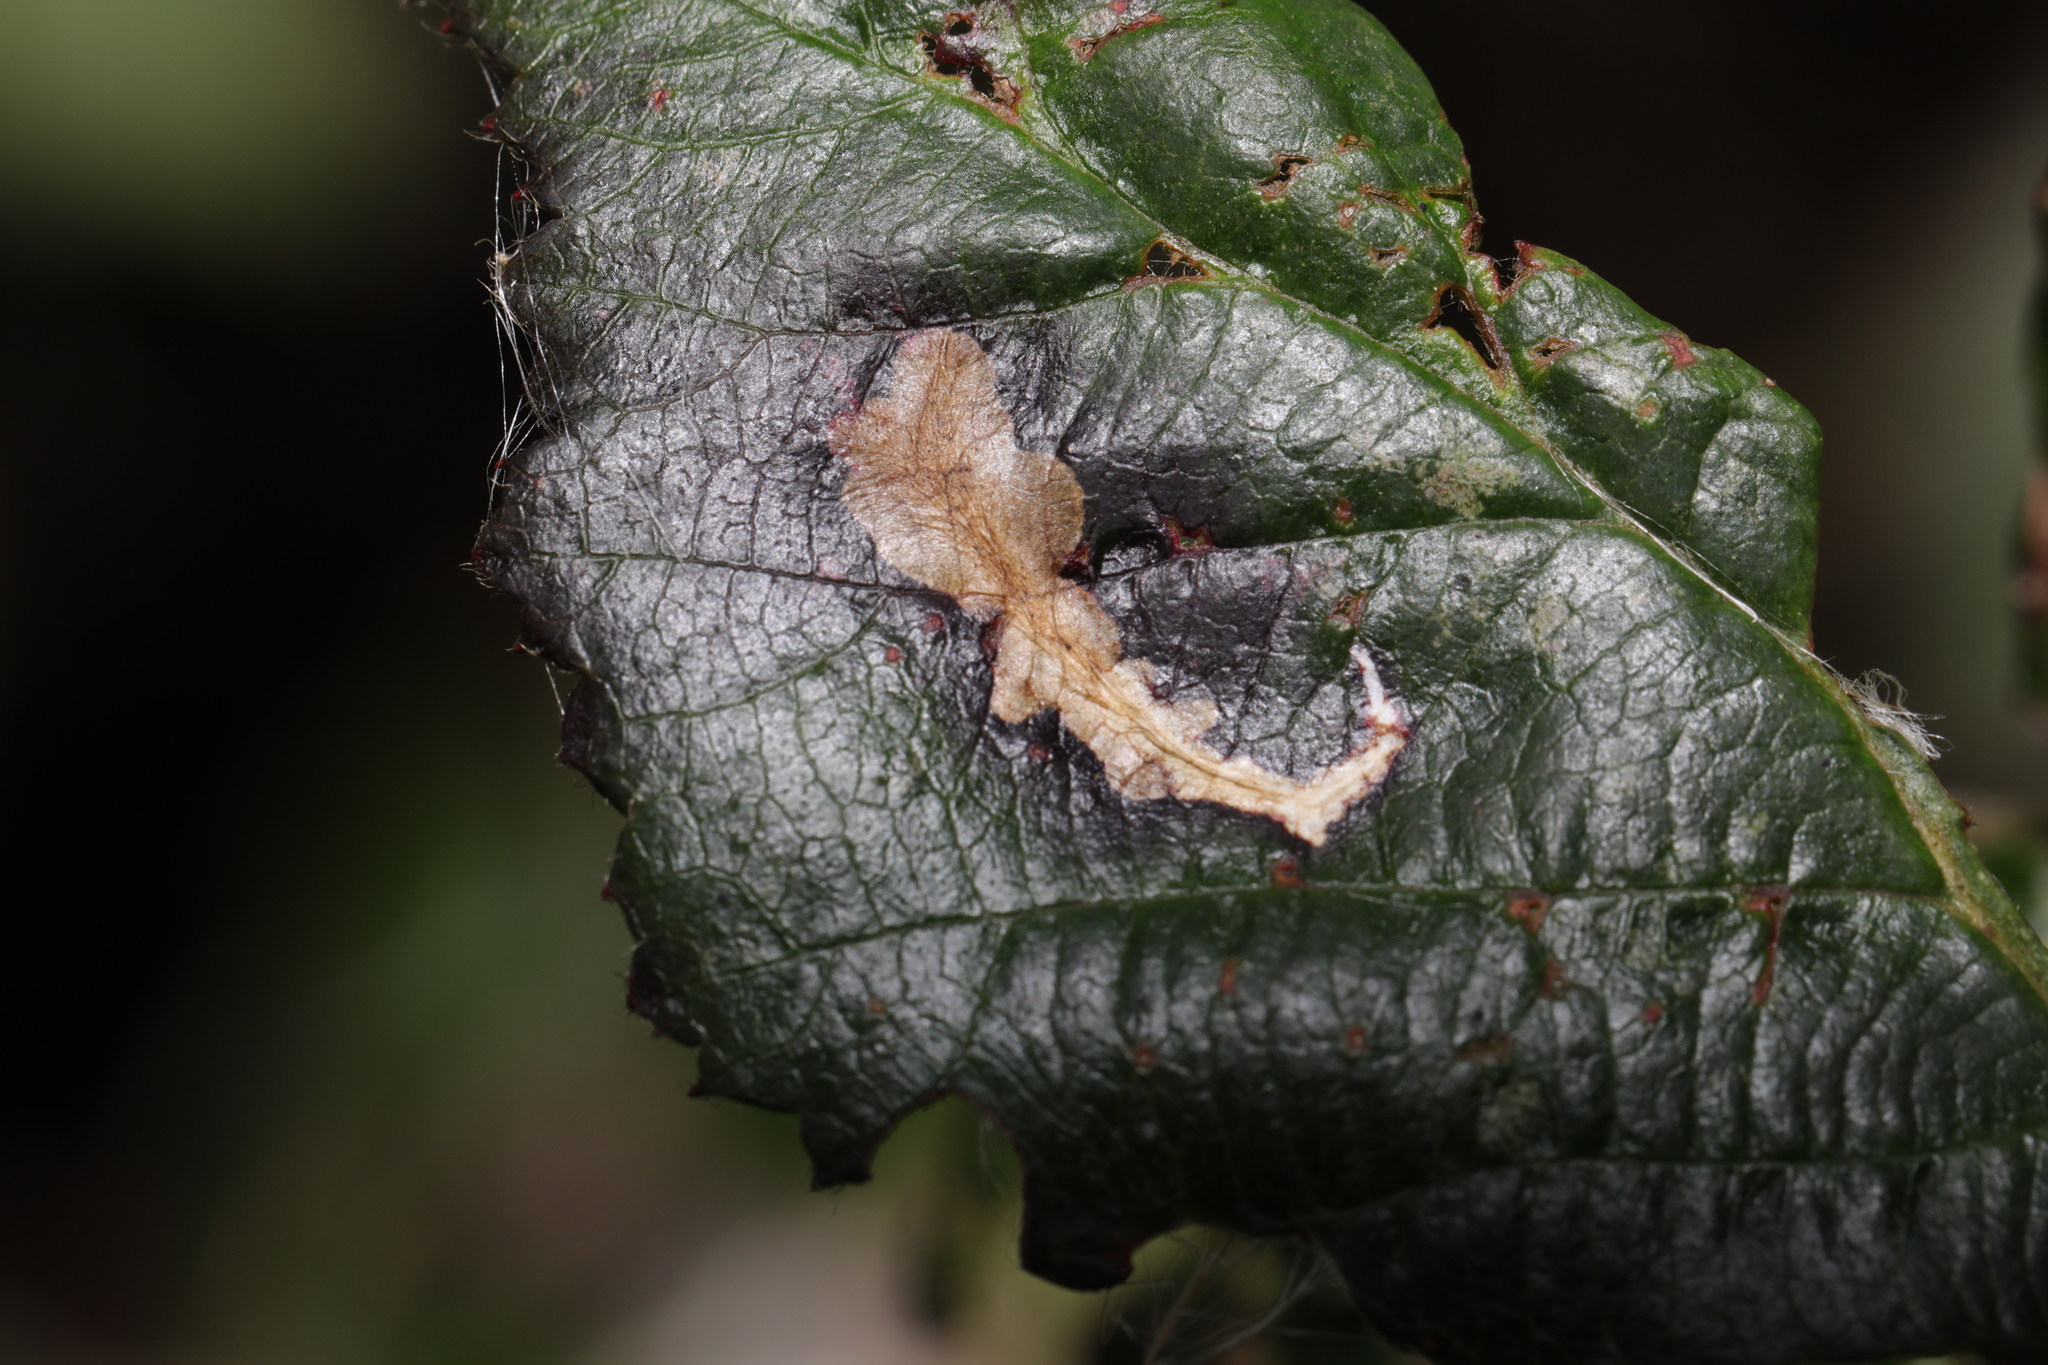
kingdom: Animalia
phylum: Arthropoda
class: Insecta
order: Lepidoptera
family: Tischeriidae
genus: Coptotriche
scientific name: Coptotriche marginea
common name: Bordered carl
